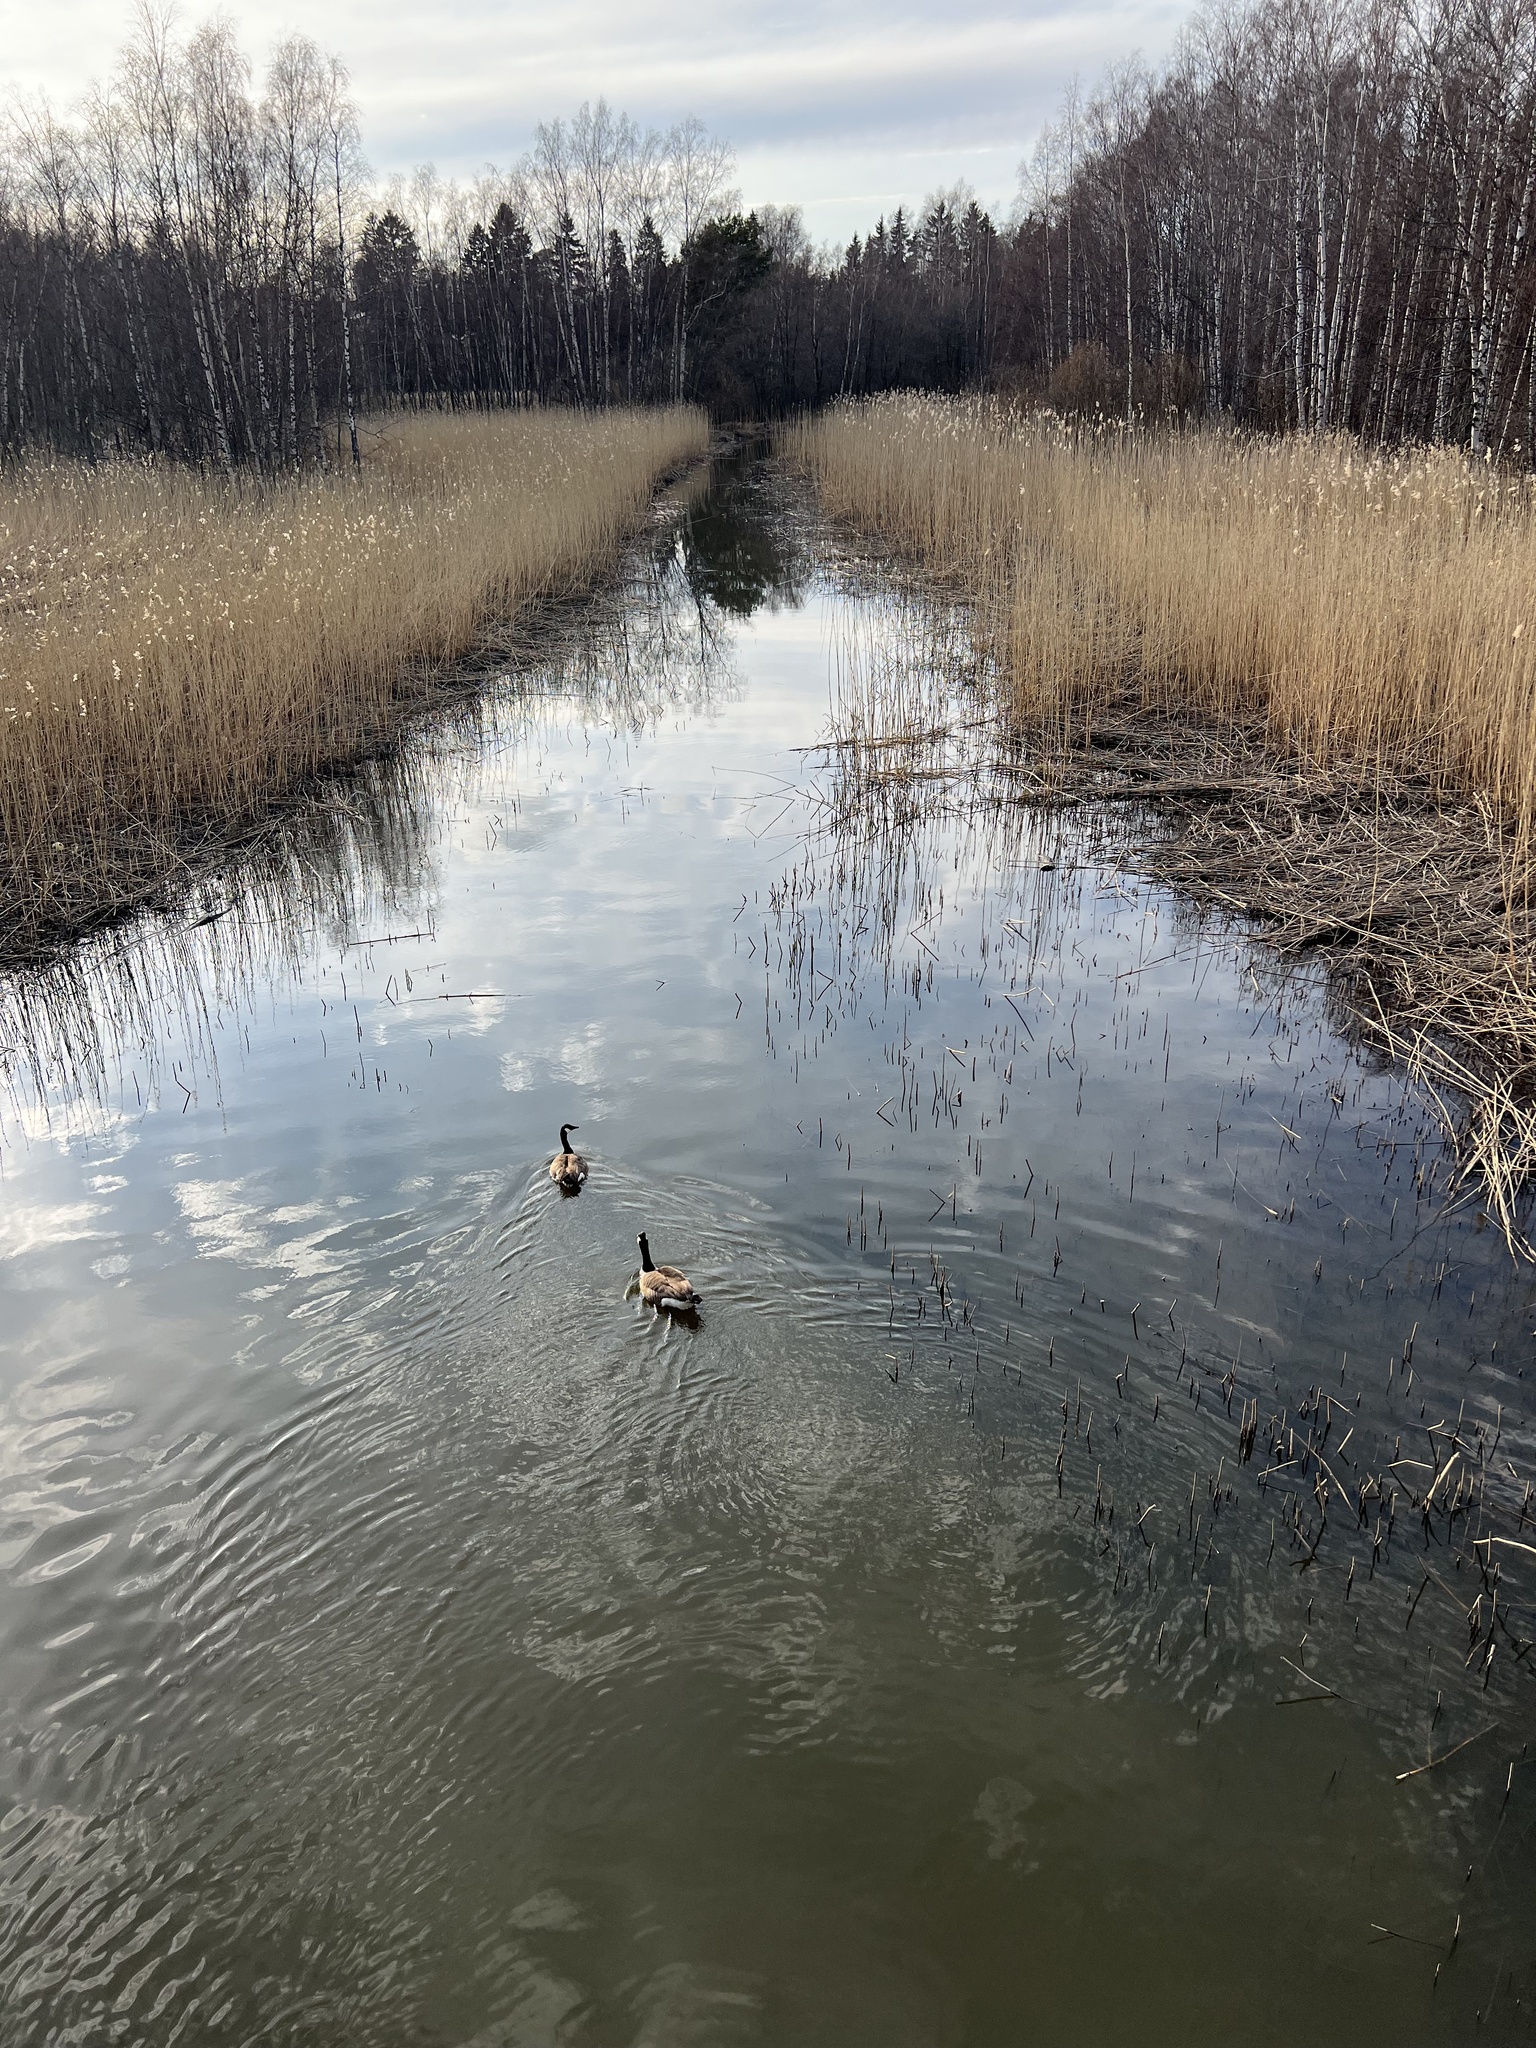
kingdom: Animalia
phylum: Chordata
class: Aves
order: Anseriformes
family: Anatidae
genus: Branta
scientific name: Branta canadensis
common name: Canada goose
